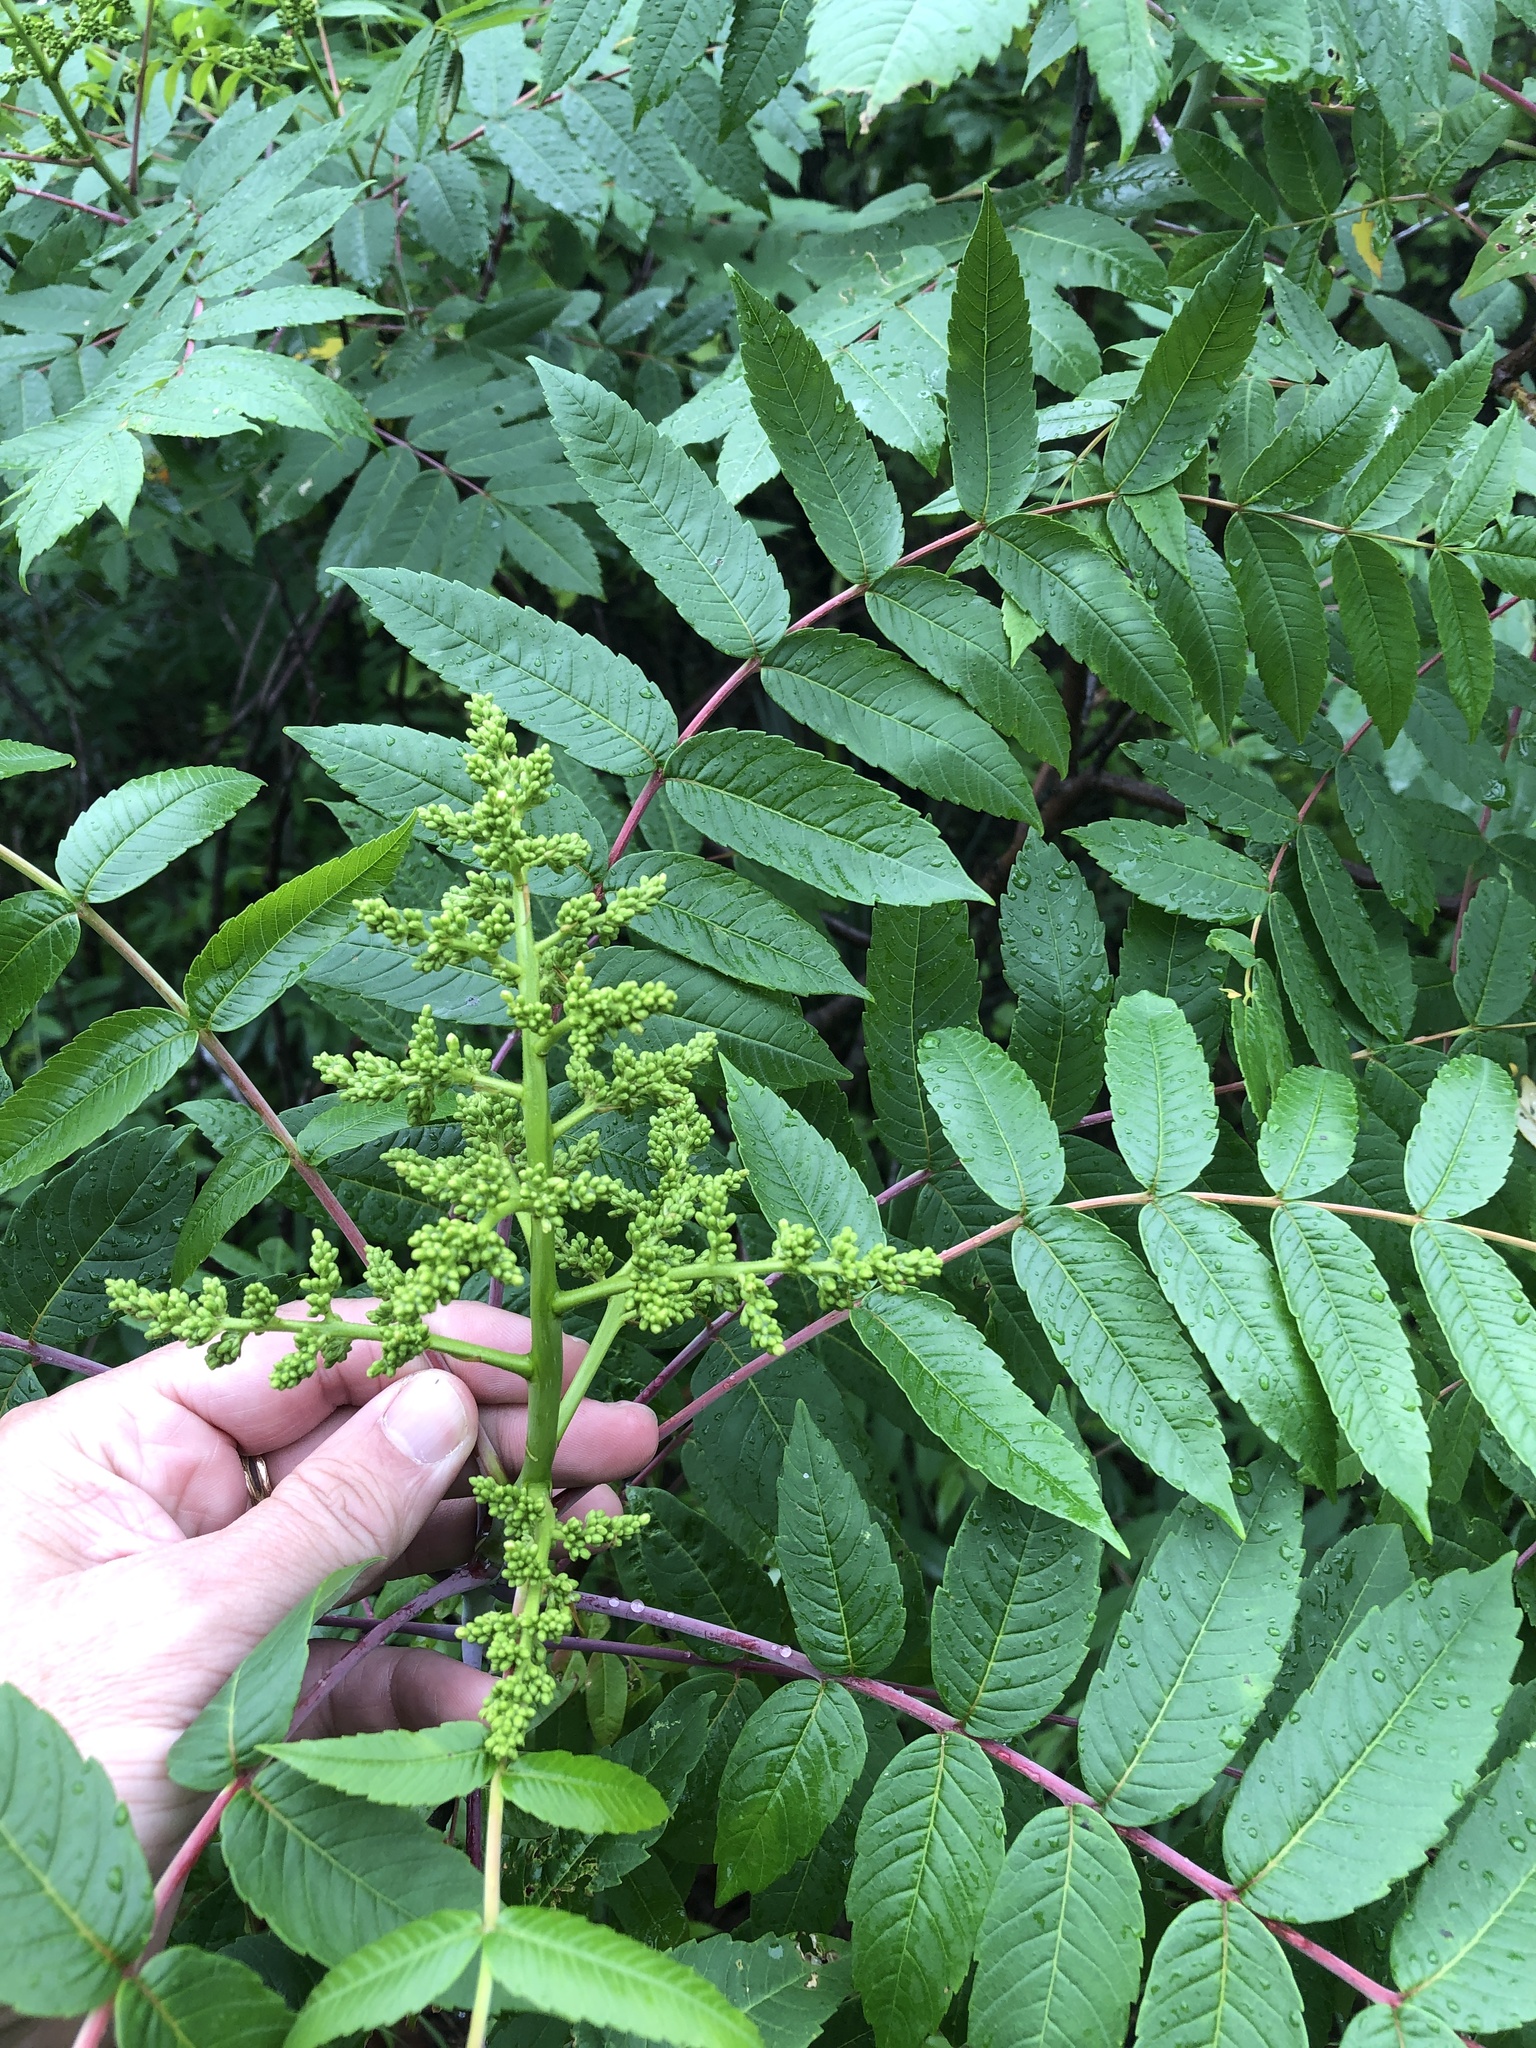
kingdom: Plantae
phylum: Tracheophyta
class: Magnoliopsida
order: Sapindales
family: Anacardiaceae
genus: Rhus
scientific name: Rhus glabra
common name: Scarlet sumac
